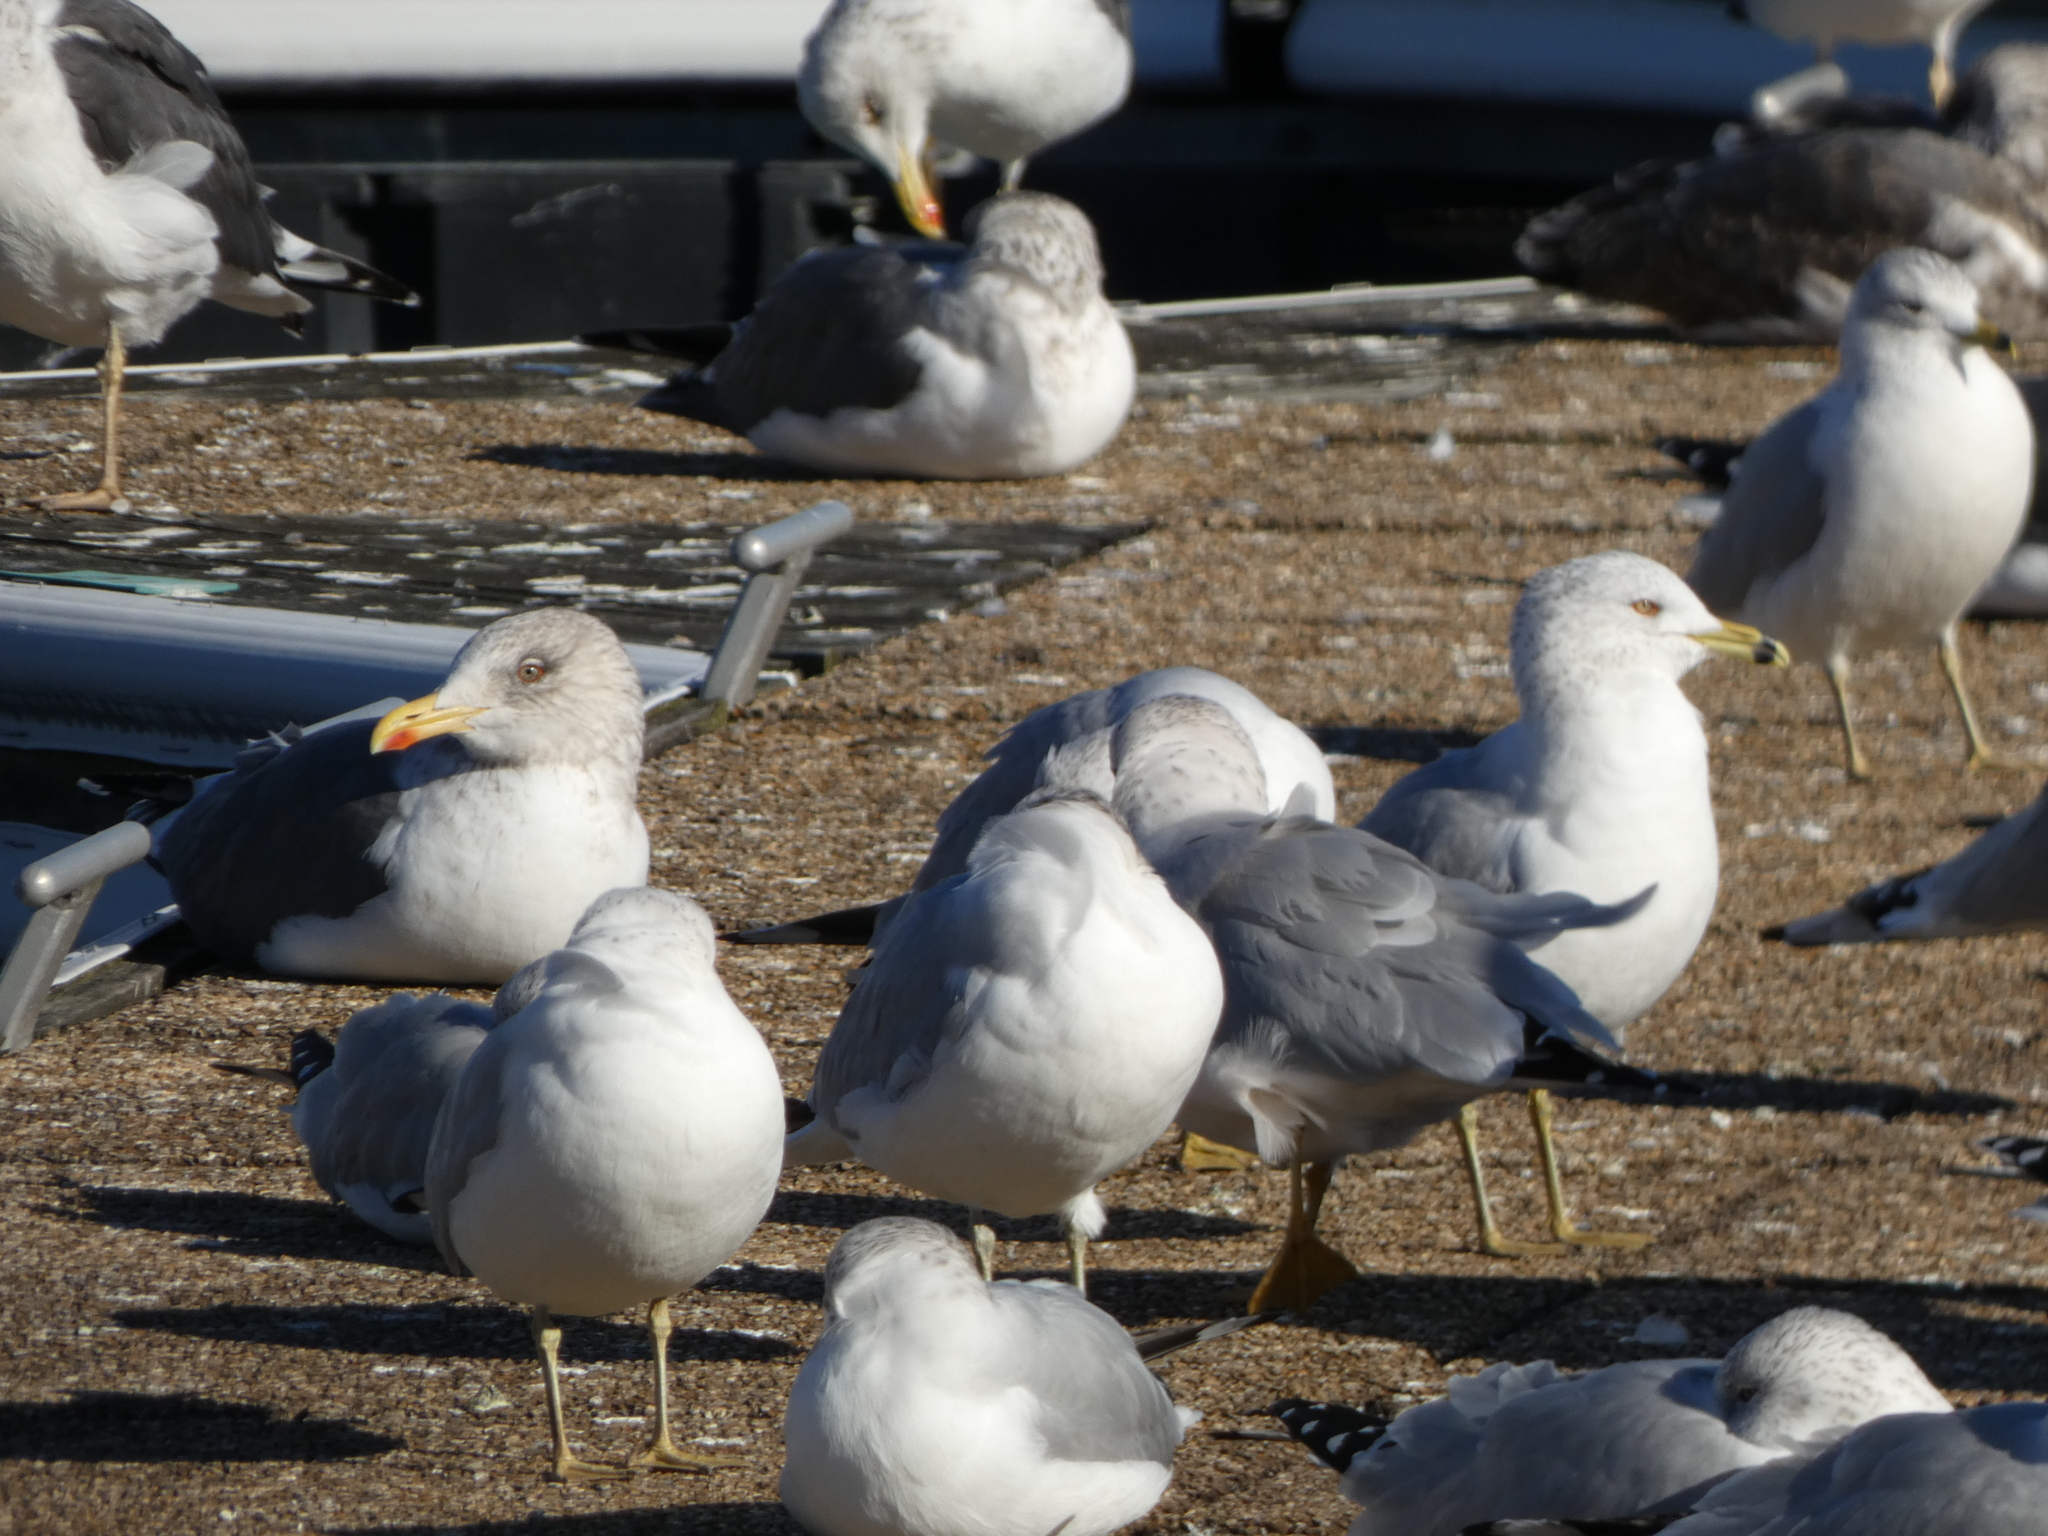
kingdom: Animalia
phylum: Chordata
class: Aves
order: Charadriiformes
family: Laridae
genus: Larus
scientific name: Larus fuscus
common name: Lesser black-backed gull
